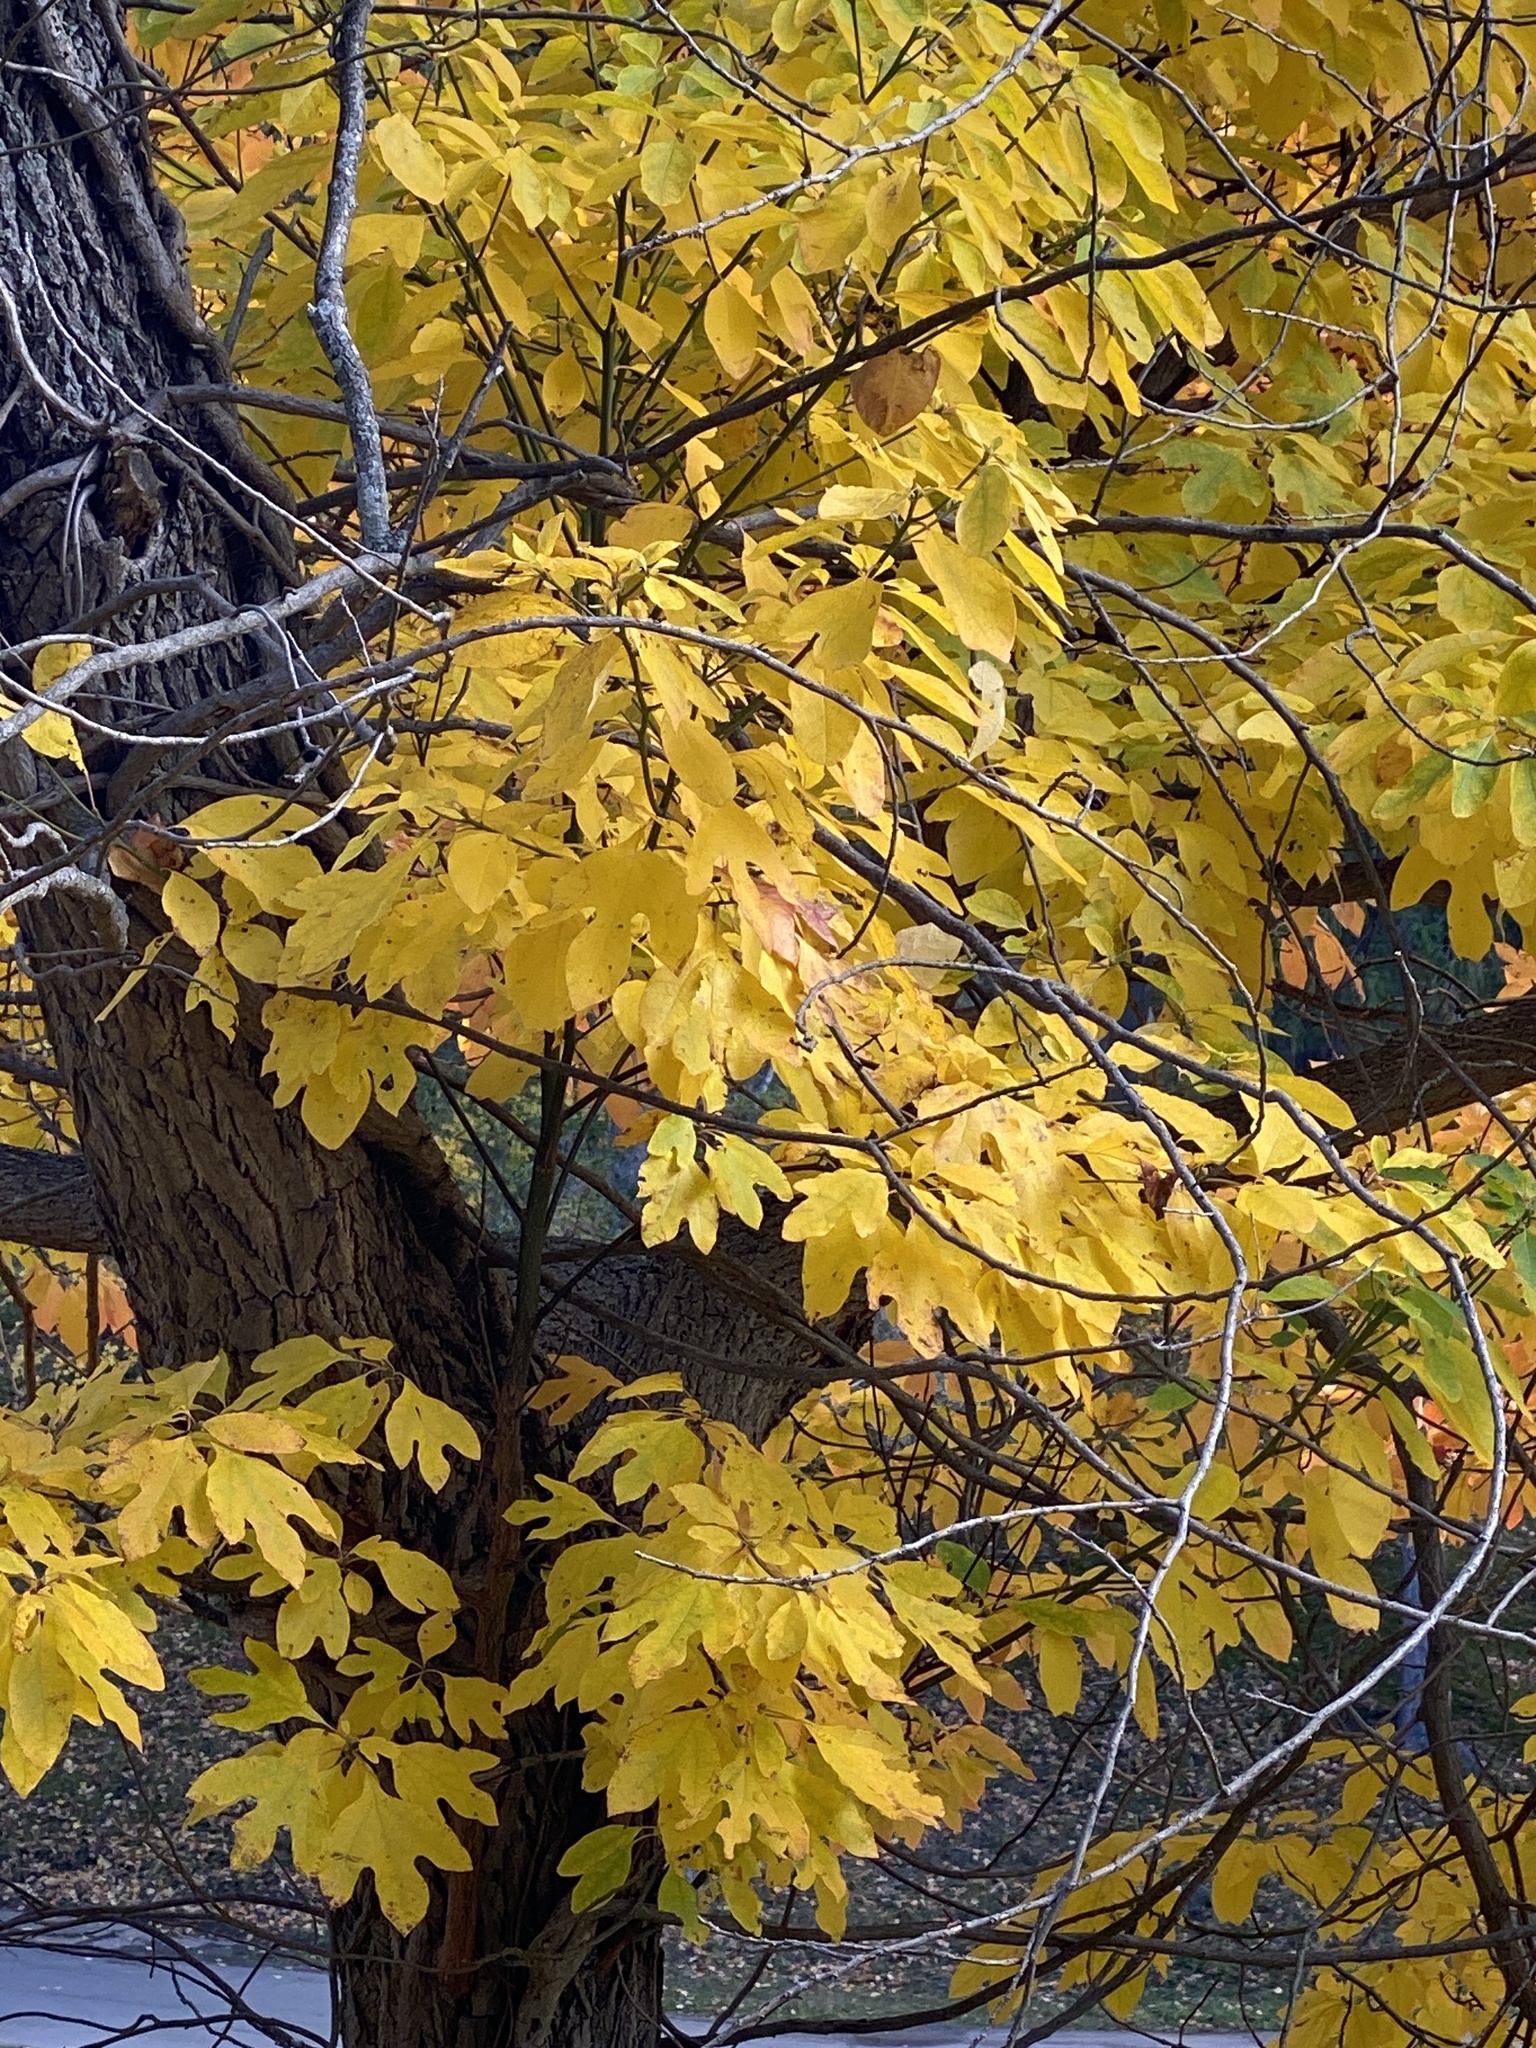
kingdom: Plantae
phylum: Tracheophyta
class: Magnoliopsida
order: Laurales
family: Lauraceae
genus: Sassafras
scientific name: Sassafras albidum
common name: Sassafras
